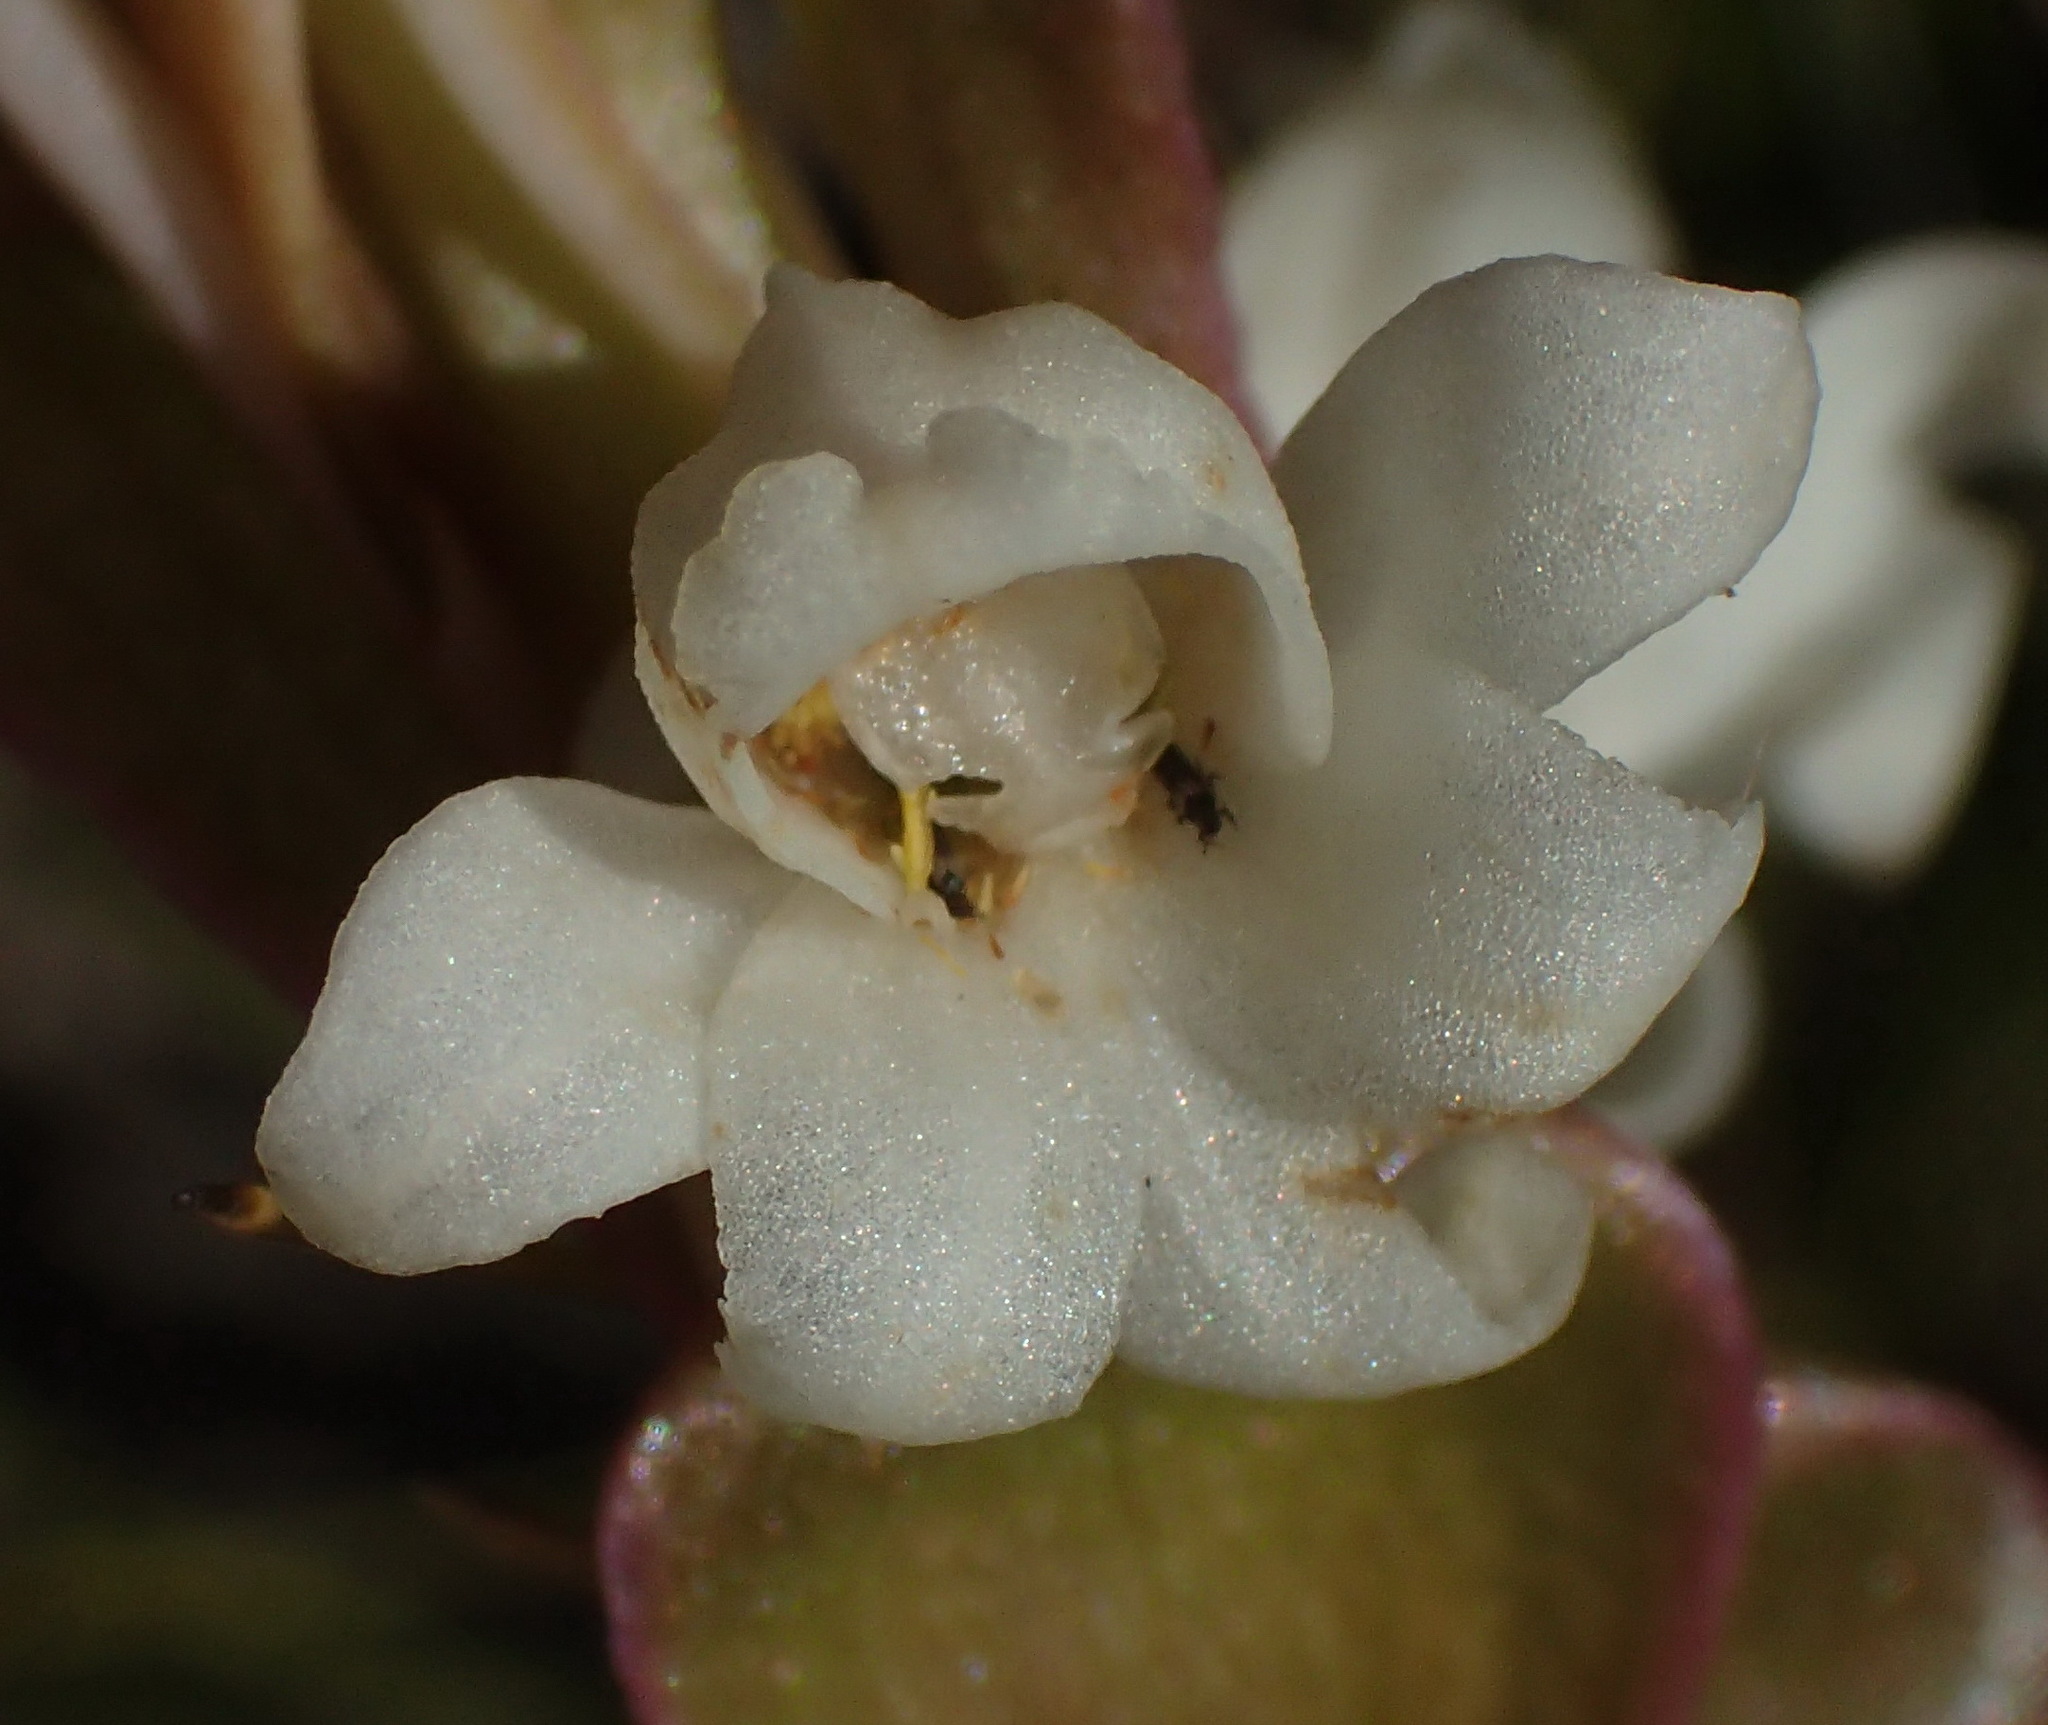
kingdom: Plantae
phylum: Tracheophyta
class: Liliopsida
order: Asparagales
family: Orchidaceae
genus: Satyrium
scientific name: Satyrium acuminatum
